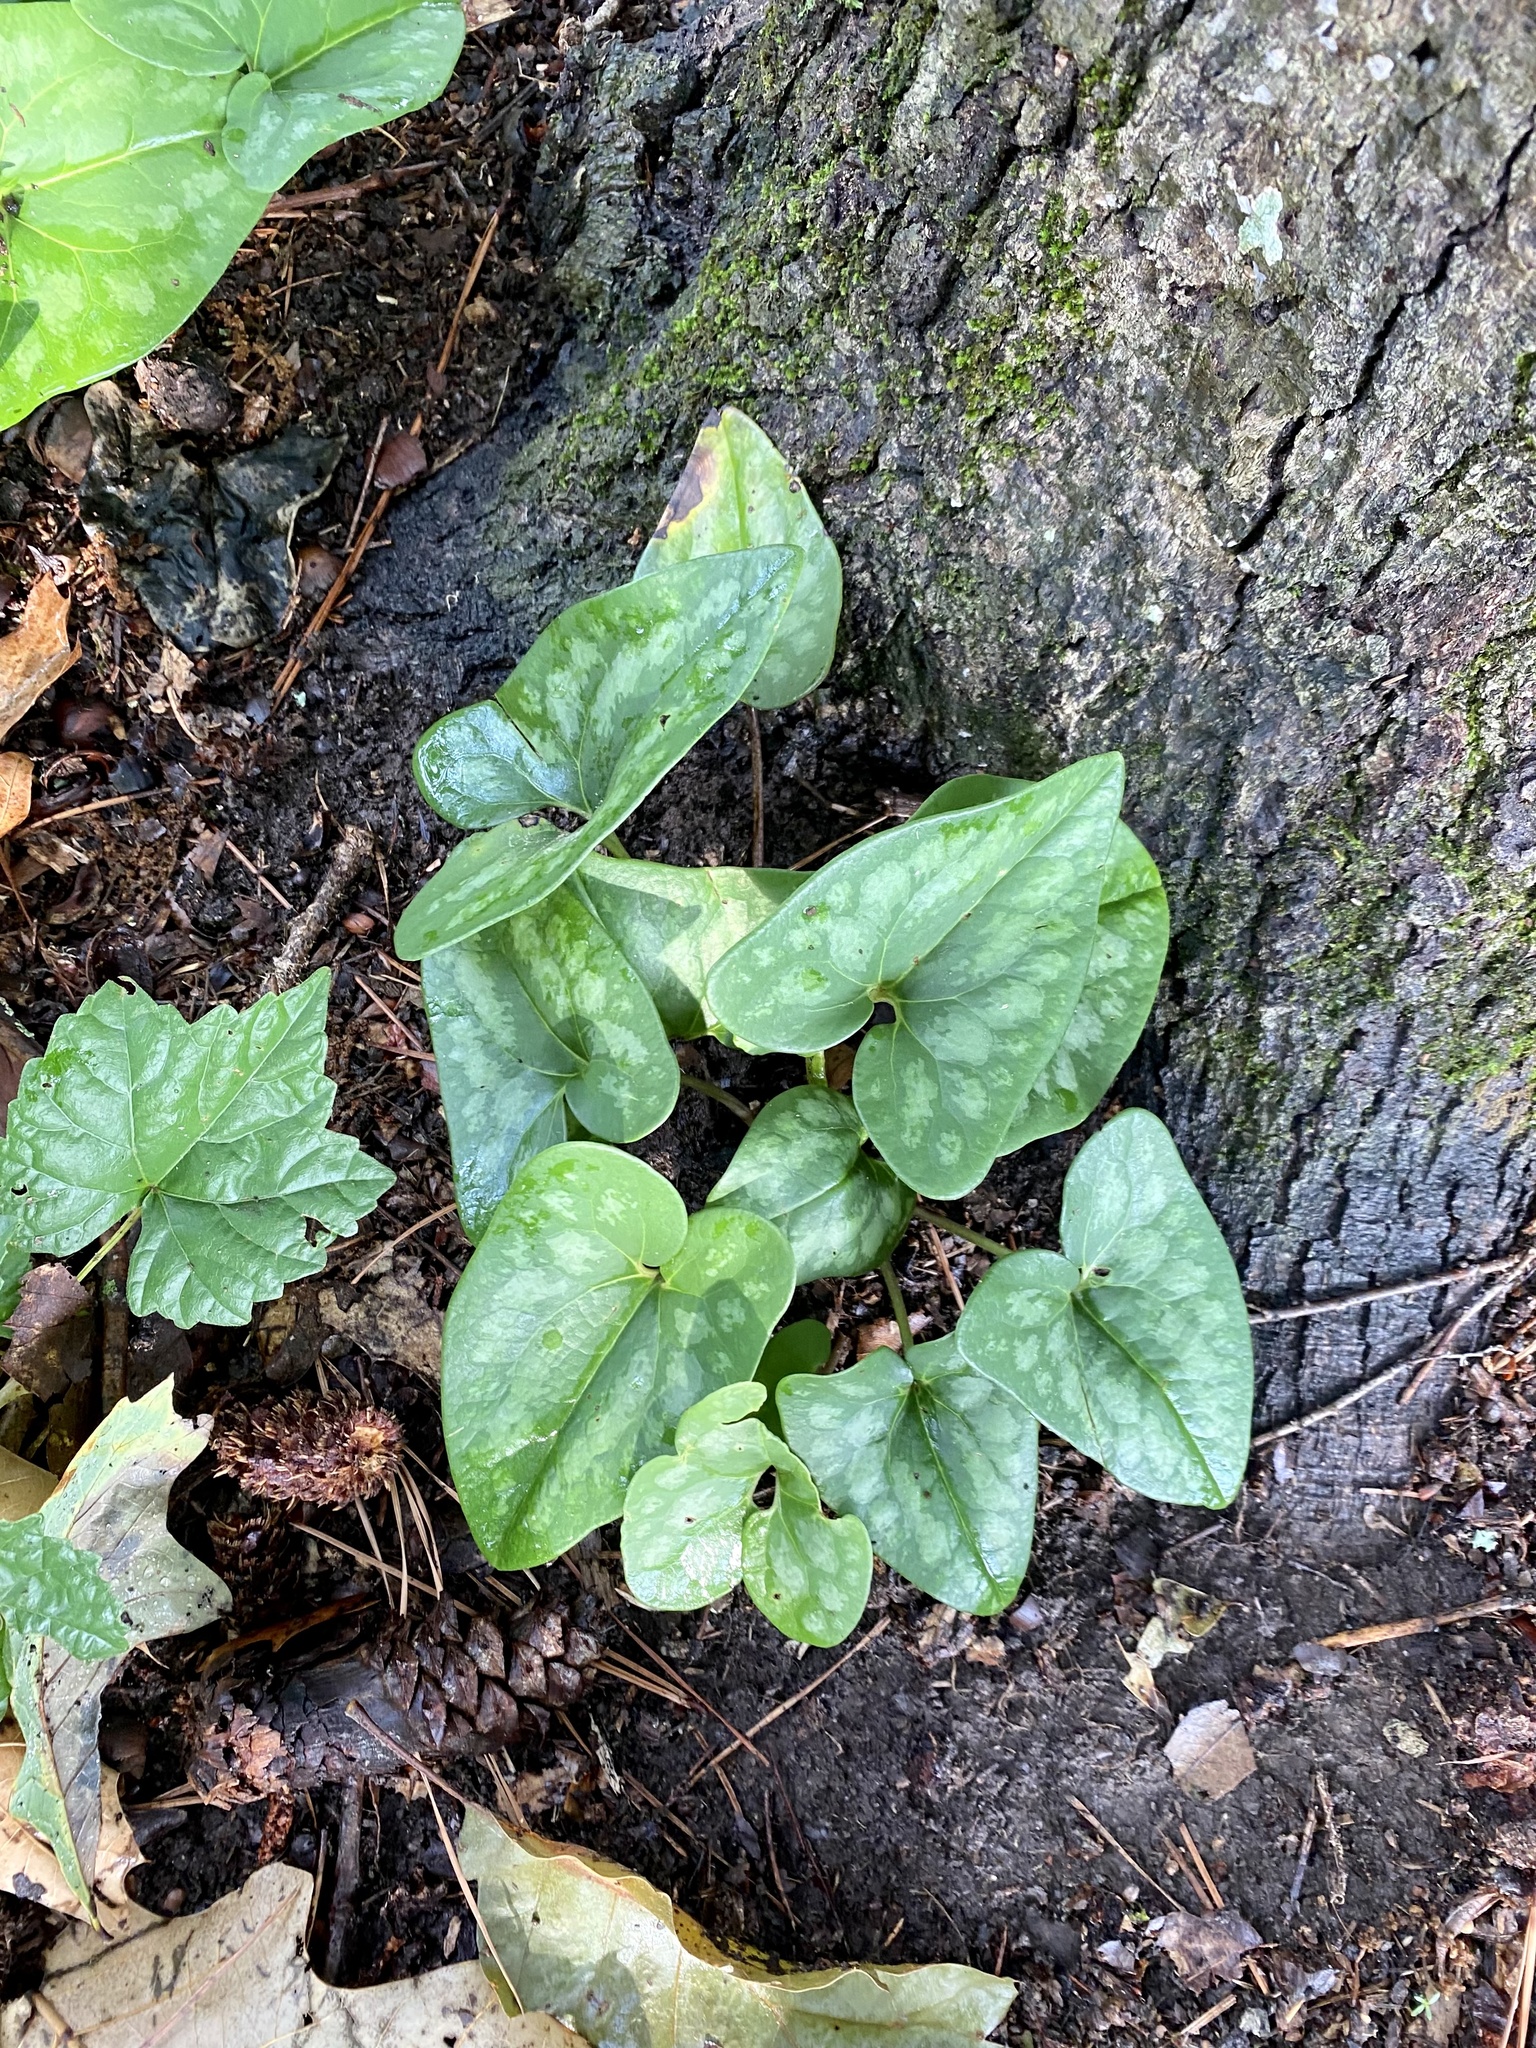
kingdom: Plantae
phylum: Tracheophyta
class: Magnoliopsida
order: Piperales
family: Aristolochiaceae
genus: Hexastylis
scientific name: Hexastylis arifolia
